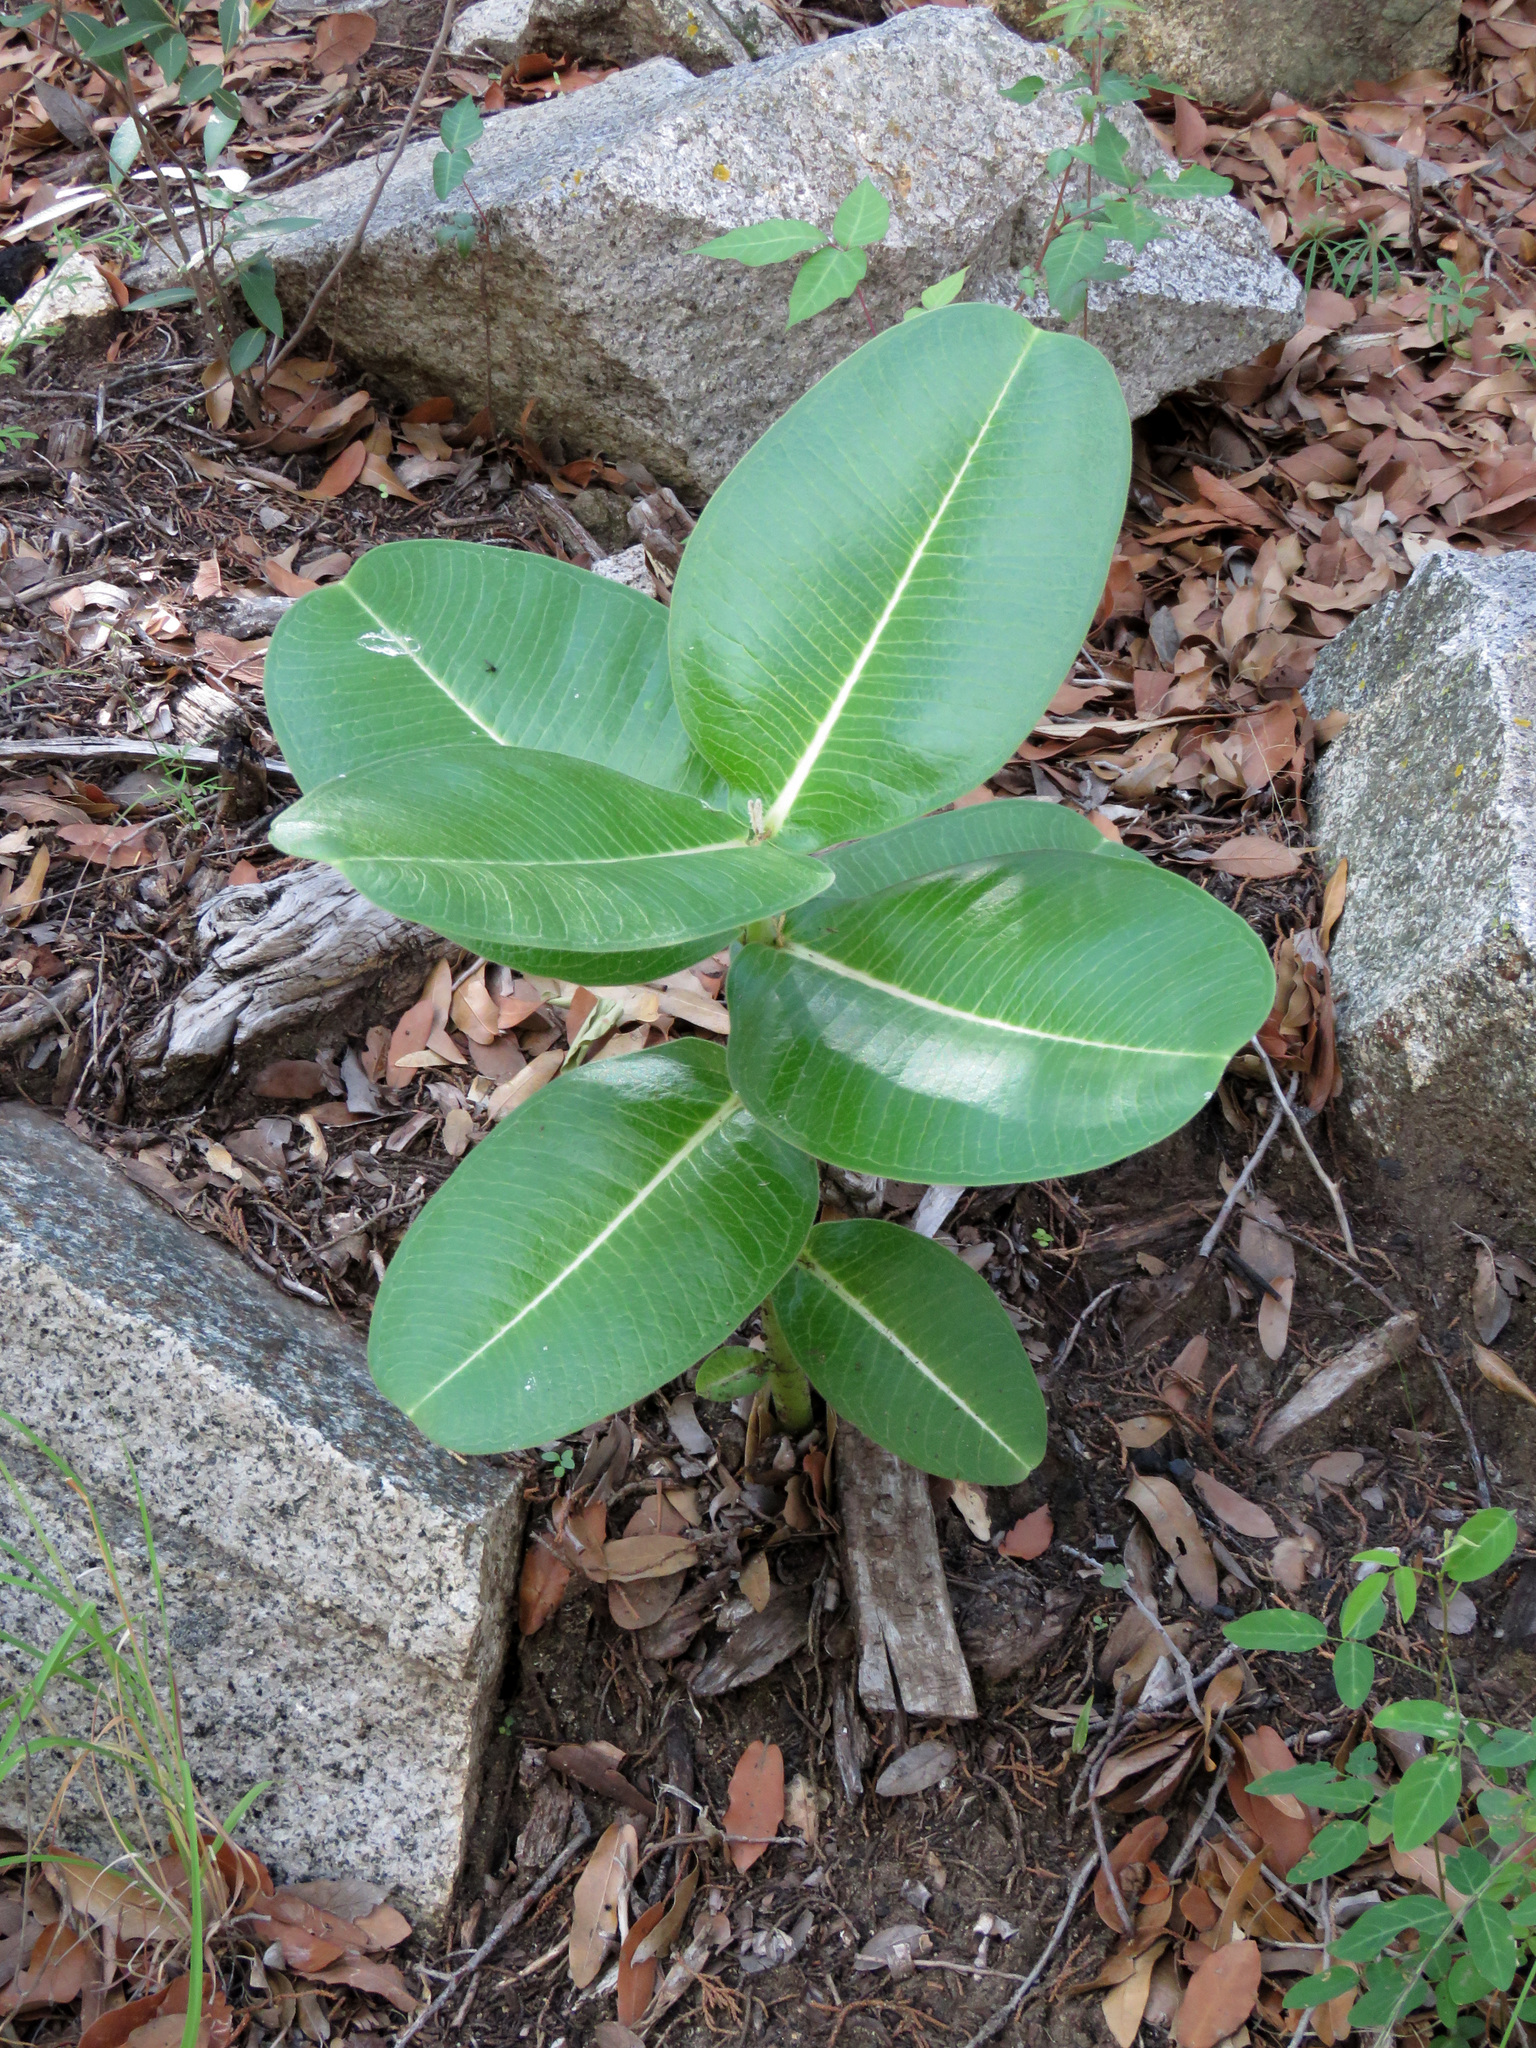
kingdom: Plantae
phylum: Tracheophyta
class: Magnoliopsida
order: Gentianales
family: Apocynaceae
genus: Asclepias
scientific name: Asclepias lemmonii
